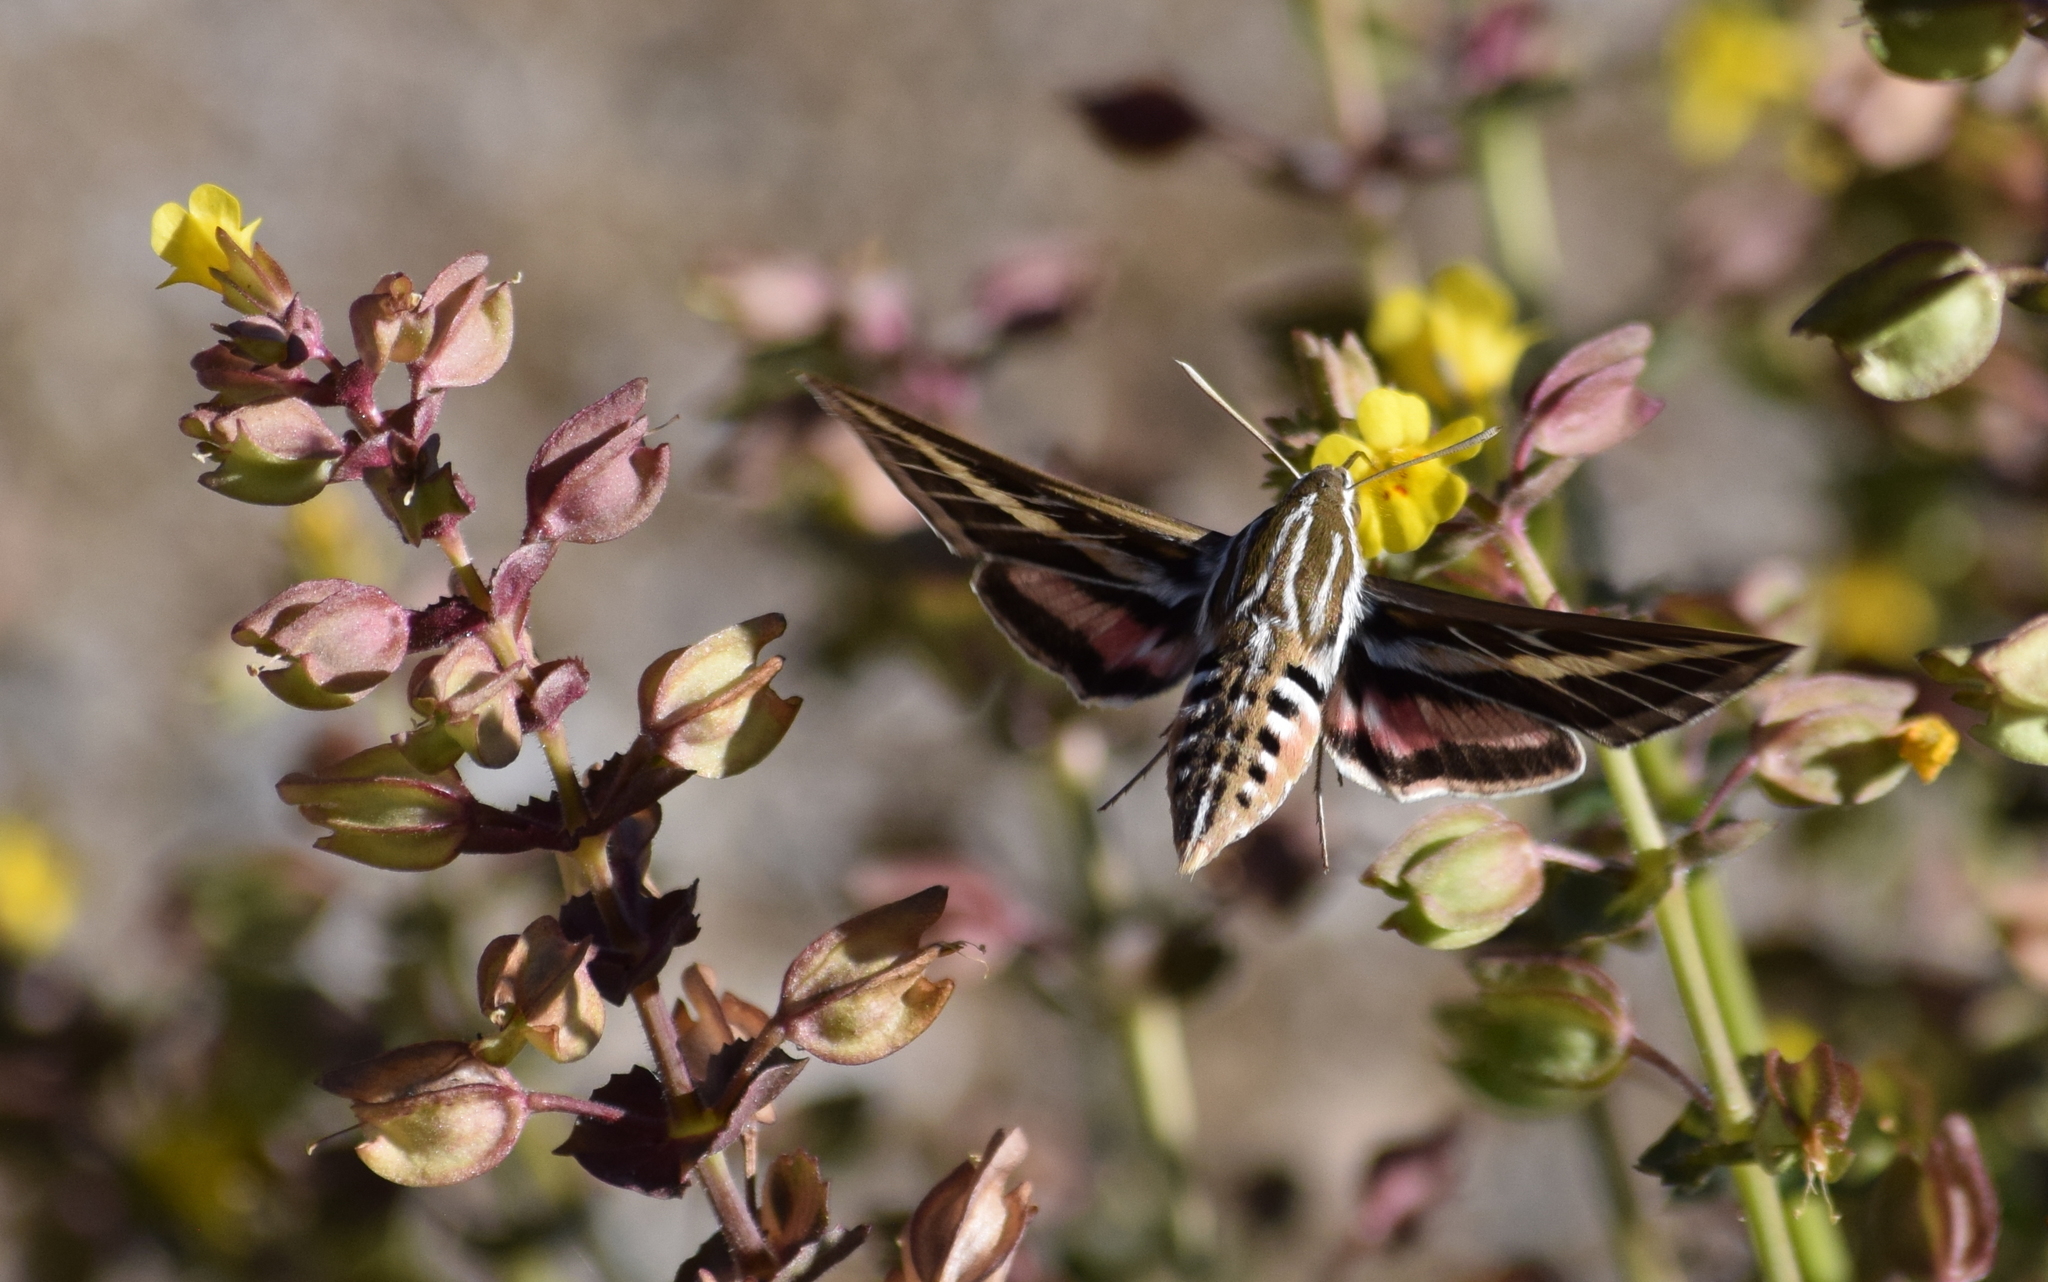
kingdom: Animalia
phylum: Arthropoda
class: Insecta
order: Lepidoptera
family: Sphingidae
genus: Hyles
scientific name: Hyles lineata
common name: White-lined sphinx
